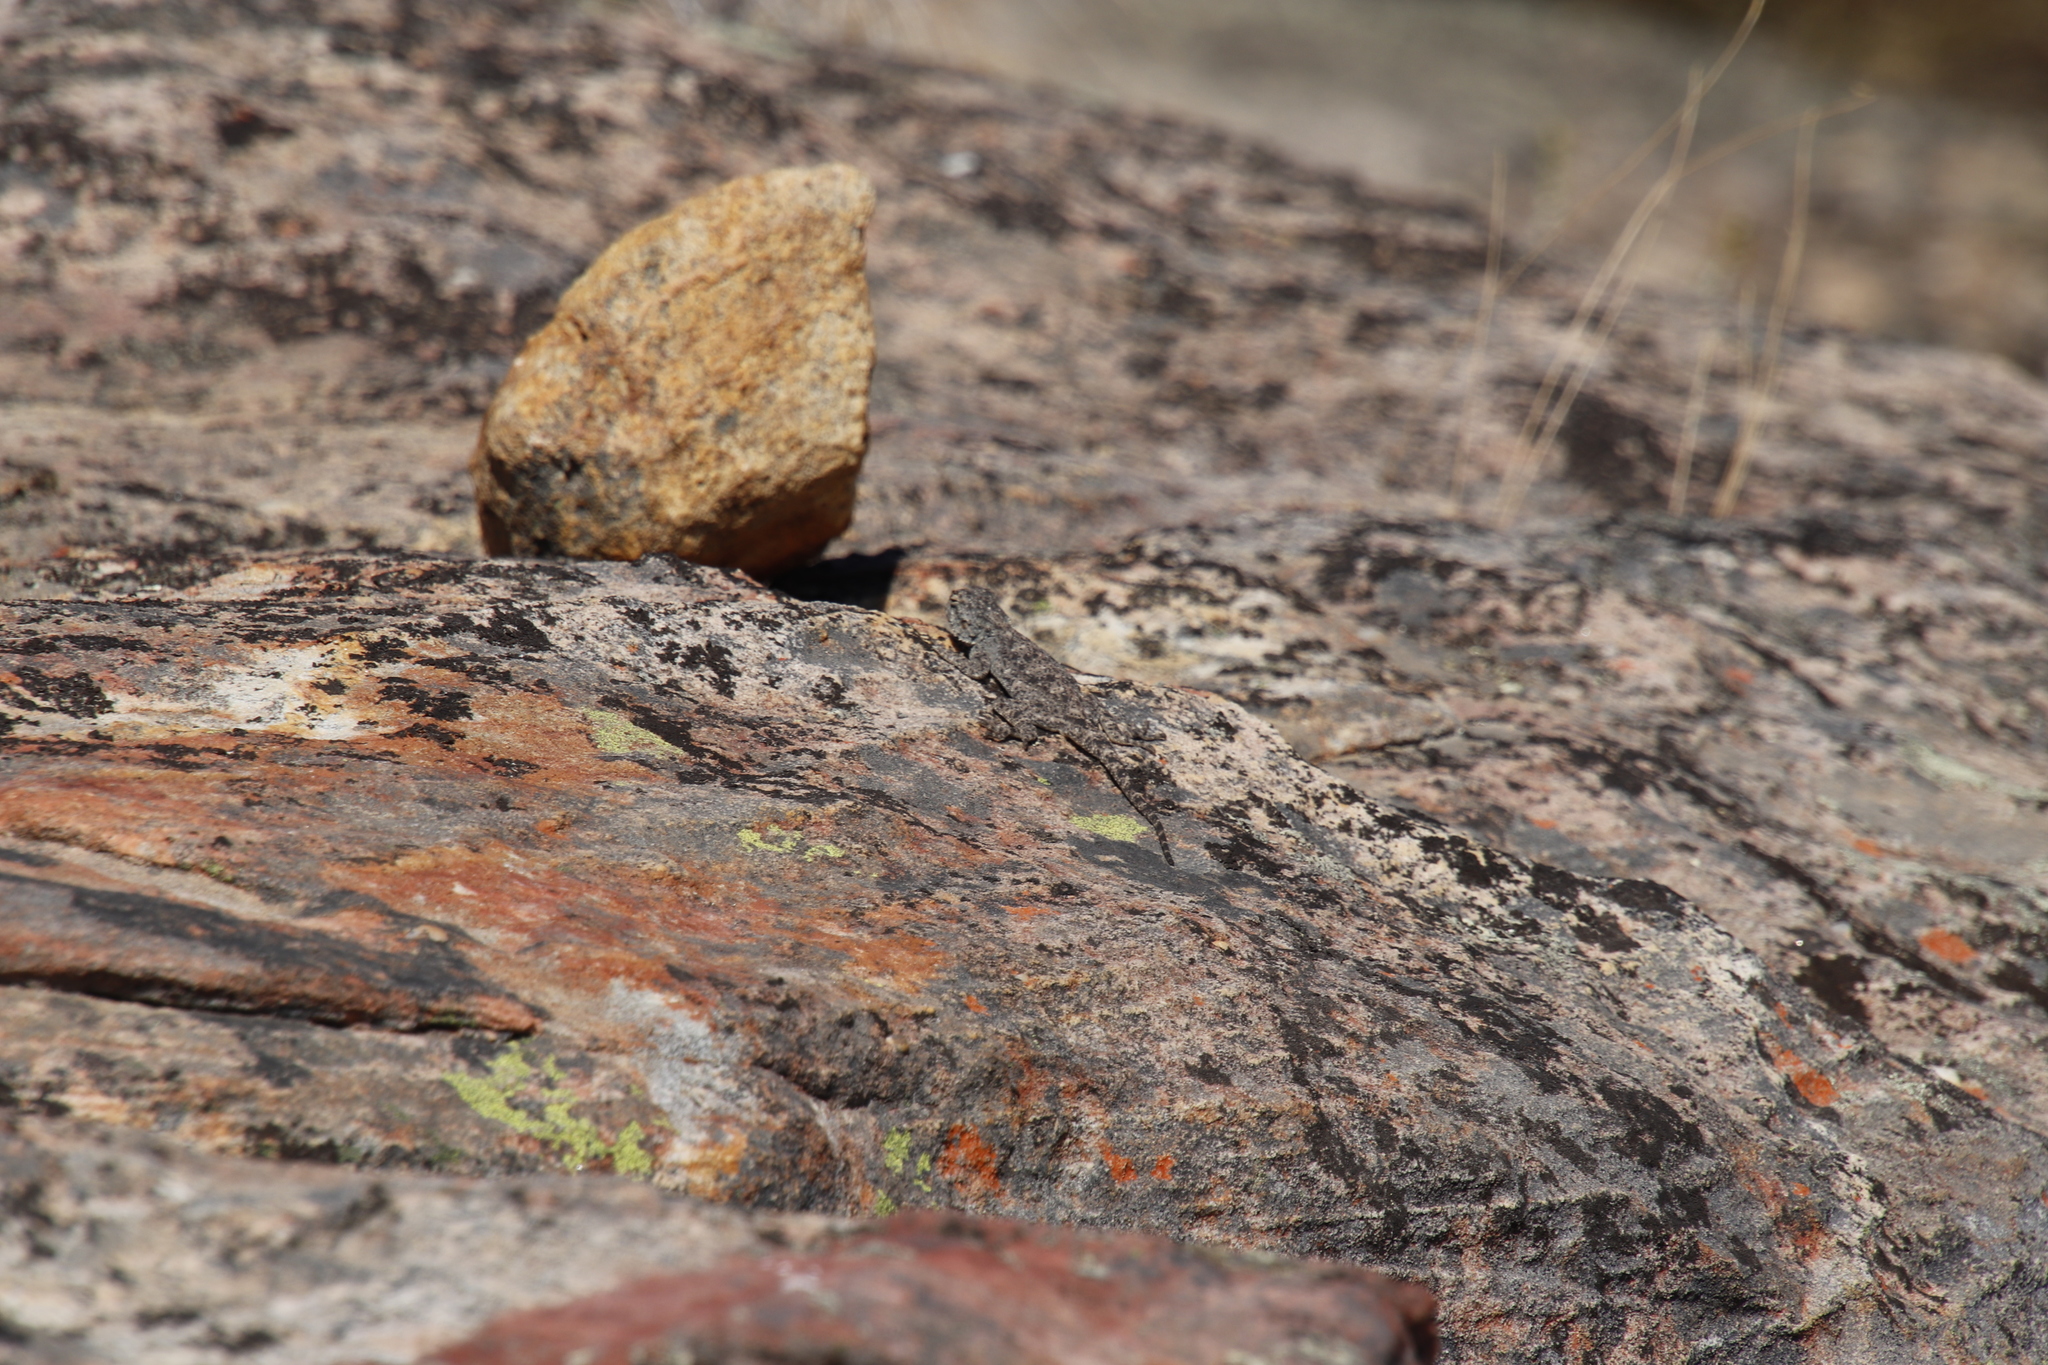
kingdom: Animalia
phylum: Chordata
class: Squamata
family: Agamidae
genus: Agama
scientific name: Agama atra
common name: Southern african rock agama
